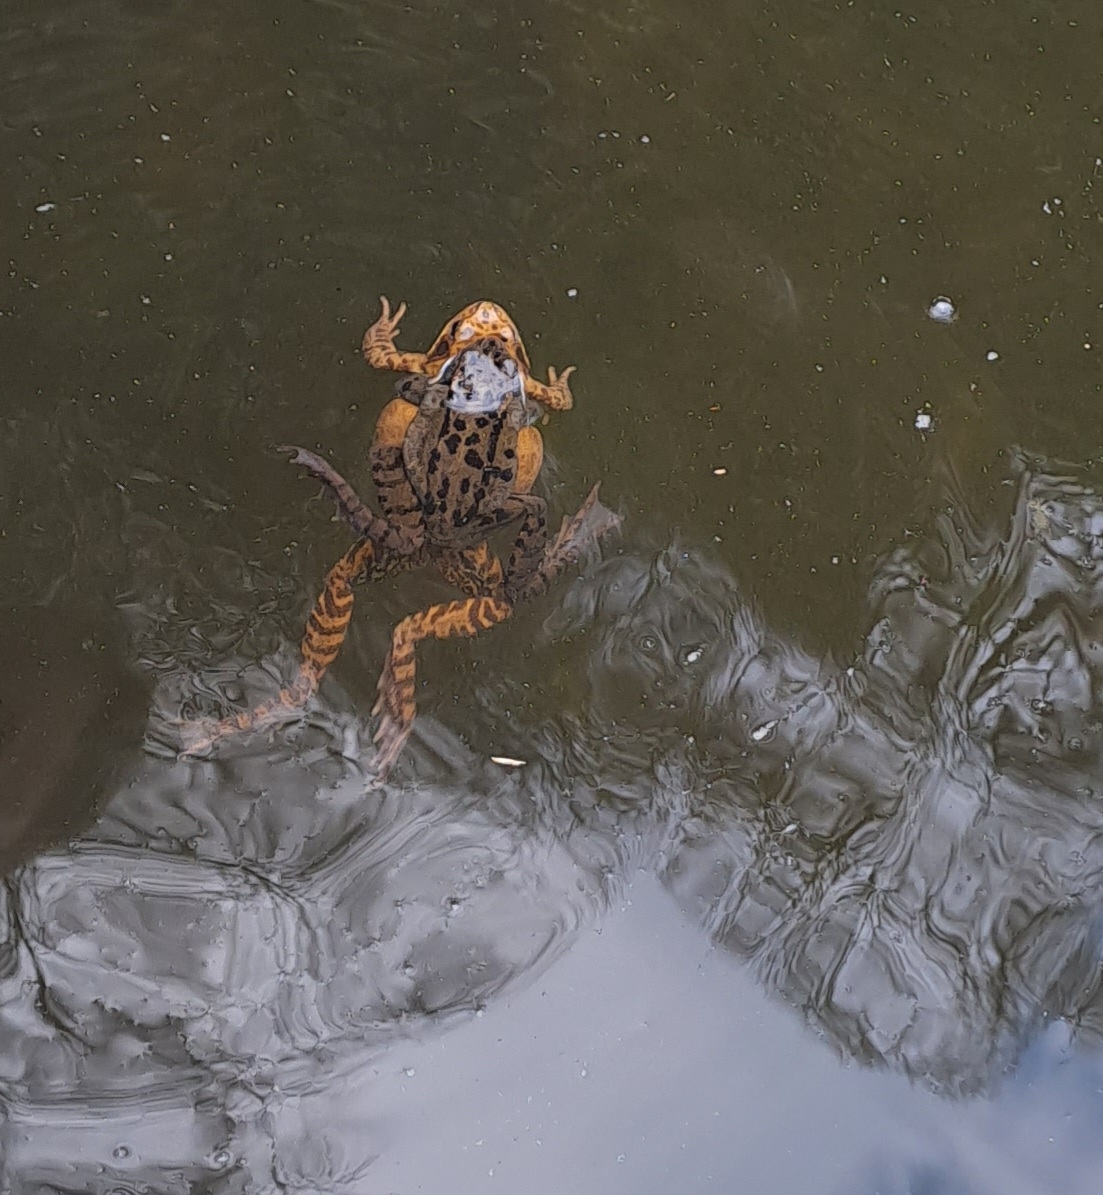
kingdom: Animalia
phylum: Chordata
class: Amphibia
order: Anura
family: Ranidae
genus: Rana
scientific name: Rana temporaria
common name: Common frog
